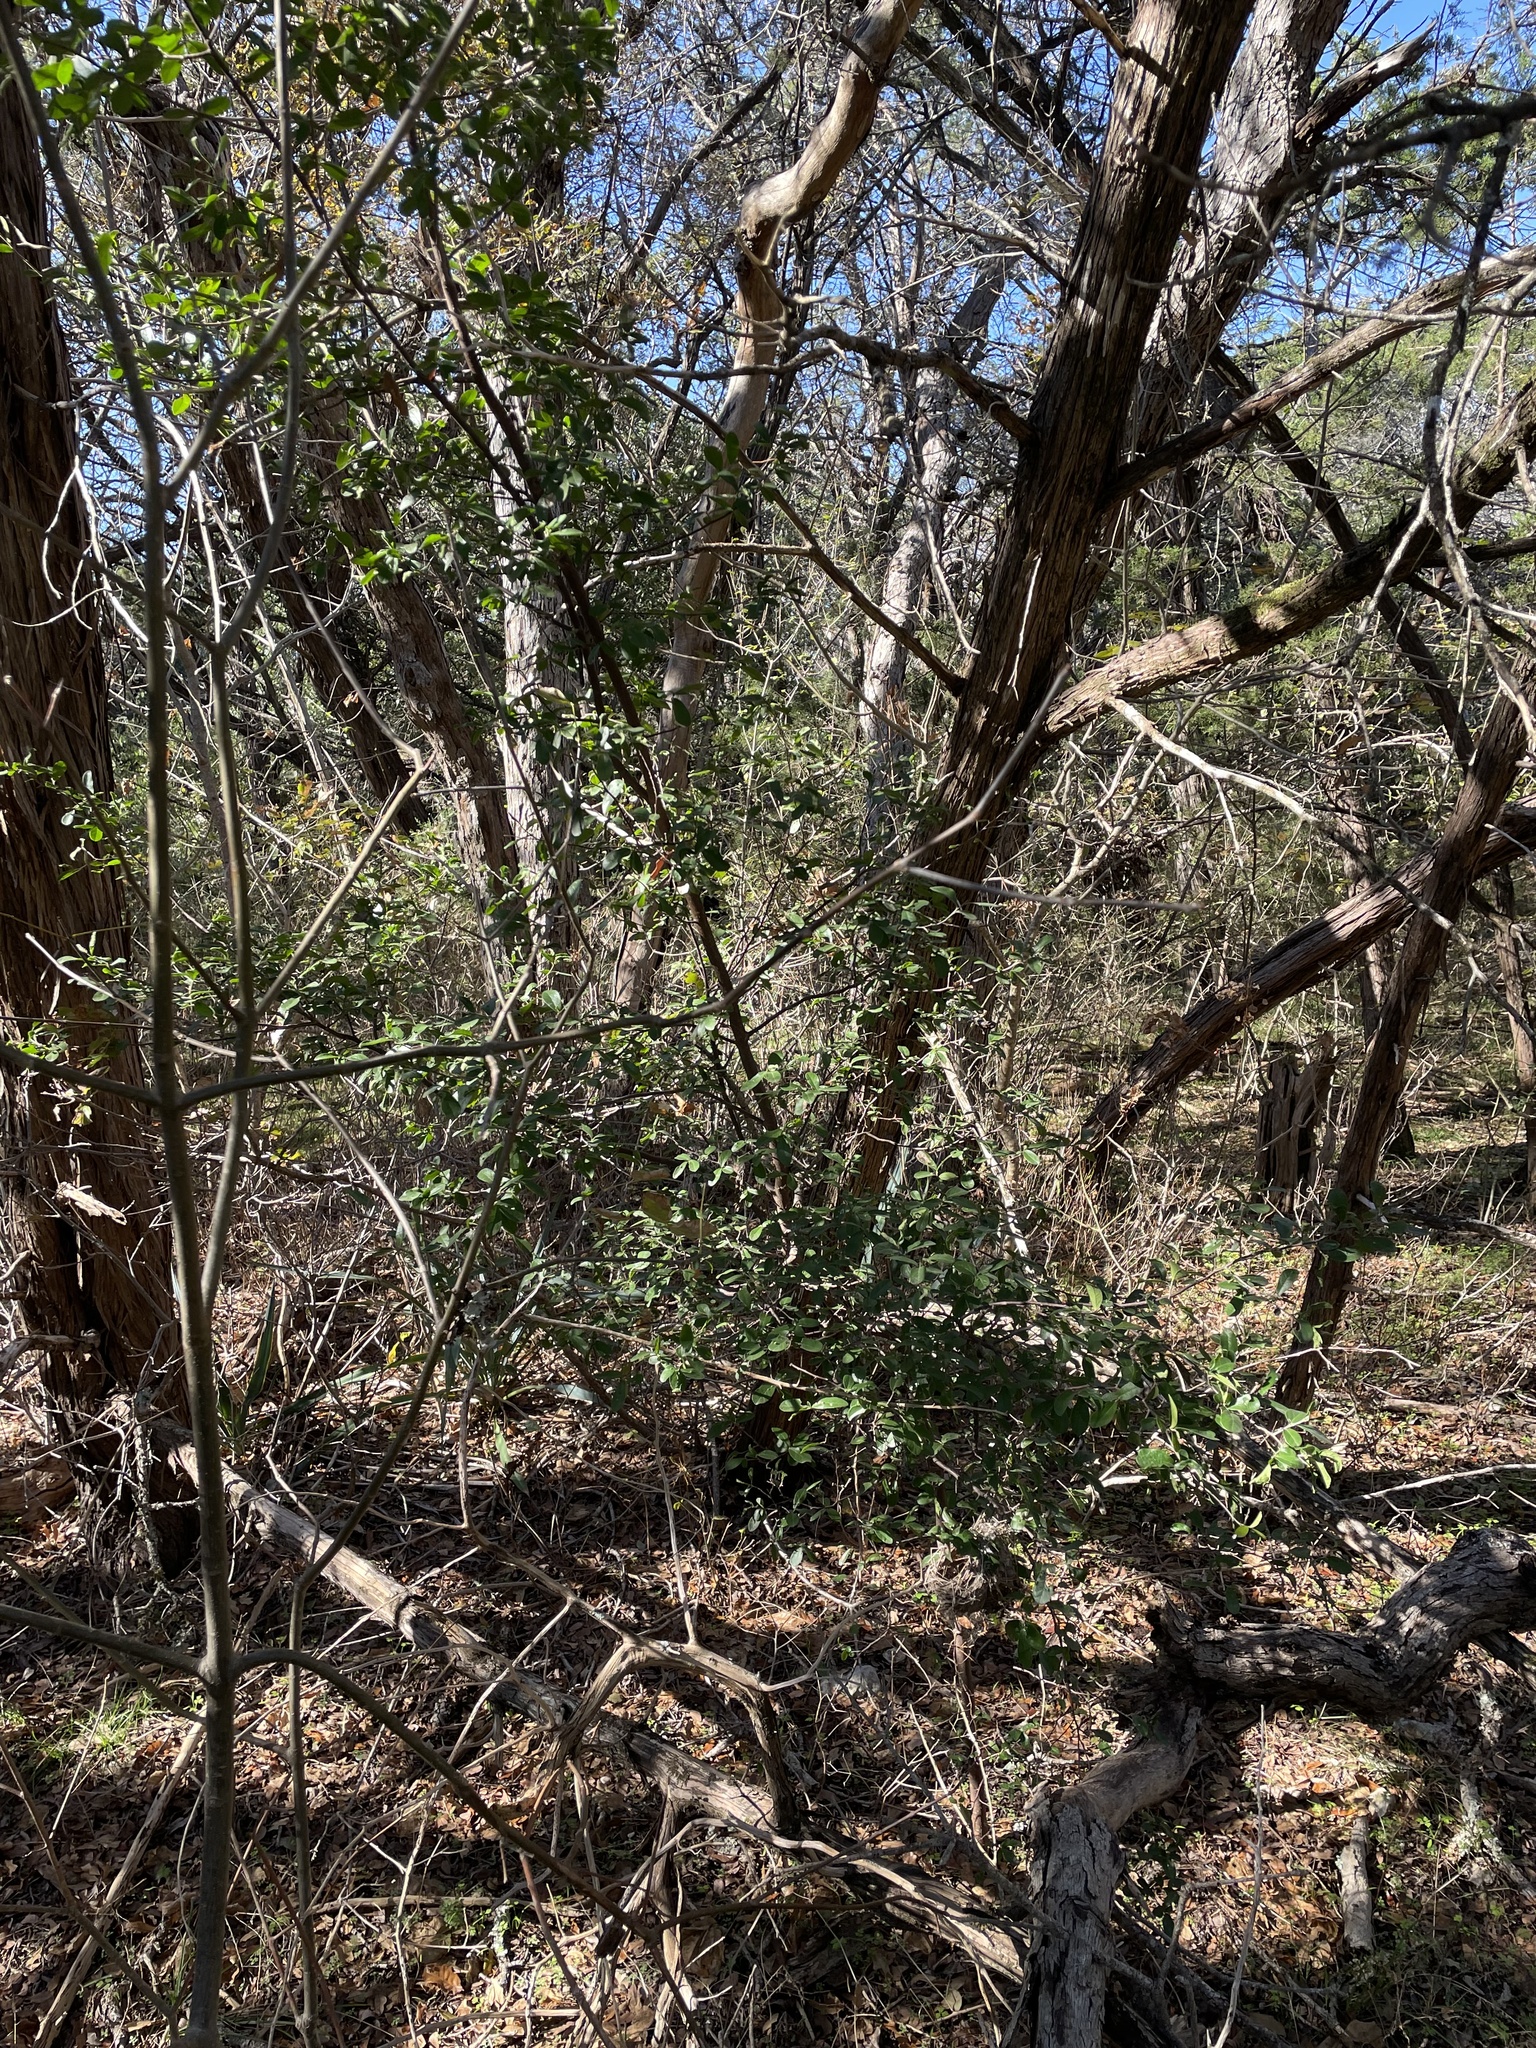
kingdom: Plantae
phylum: Tracheophyta
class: Magnoliopsida
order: Ericales
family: Ebenaceae
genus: Diospyros
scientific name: Diospyros texana
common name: Texas persimmon
